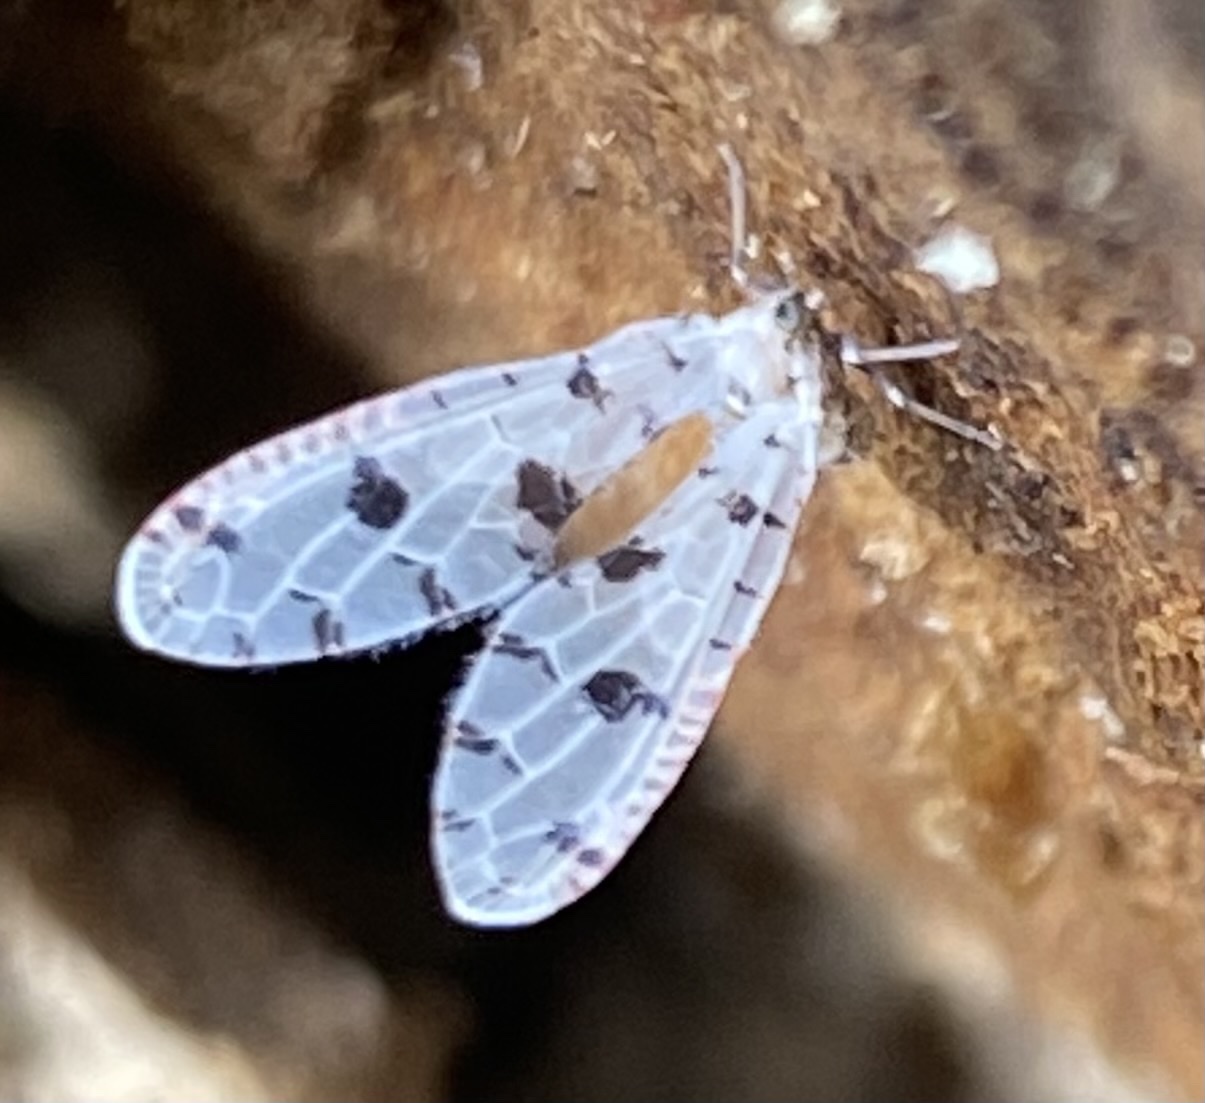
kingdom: Animalia
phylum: Arthropoda
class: Insecta
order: Hemiptera
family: Derbidae
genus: Sikaiana
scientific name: Sikaiana harti
